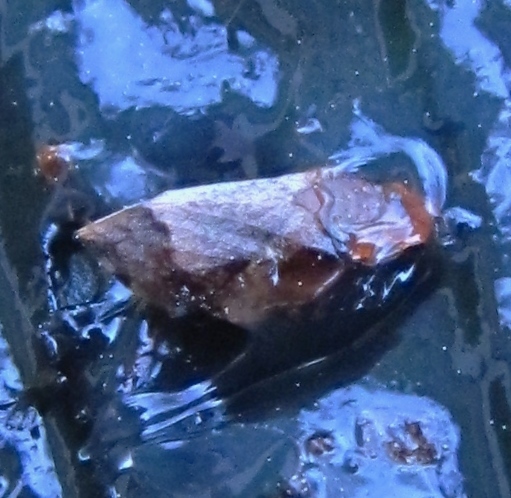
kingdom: Animalia
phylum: Arthropoda
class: Insecta
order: Hemiptera
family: Aphrophoridae
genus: Lepyronia
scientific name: Lepyronia quadrangularis
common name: Diamond-backed spittlebug
